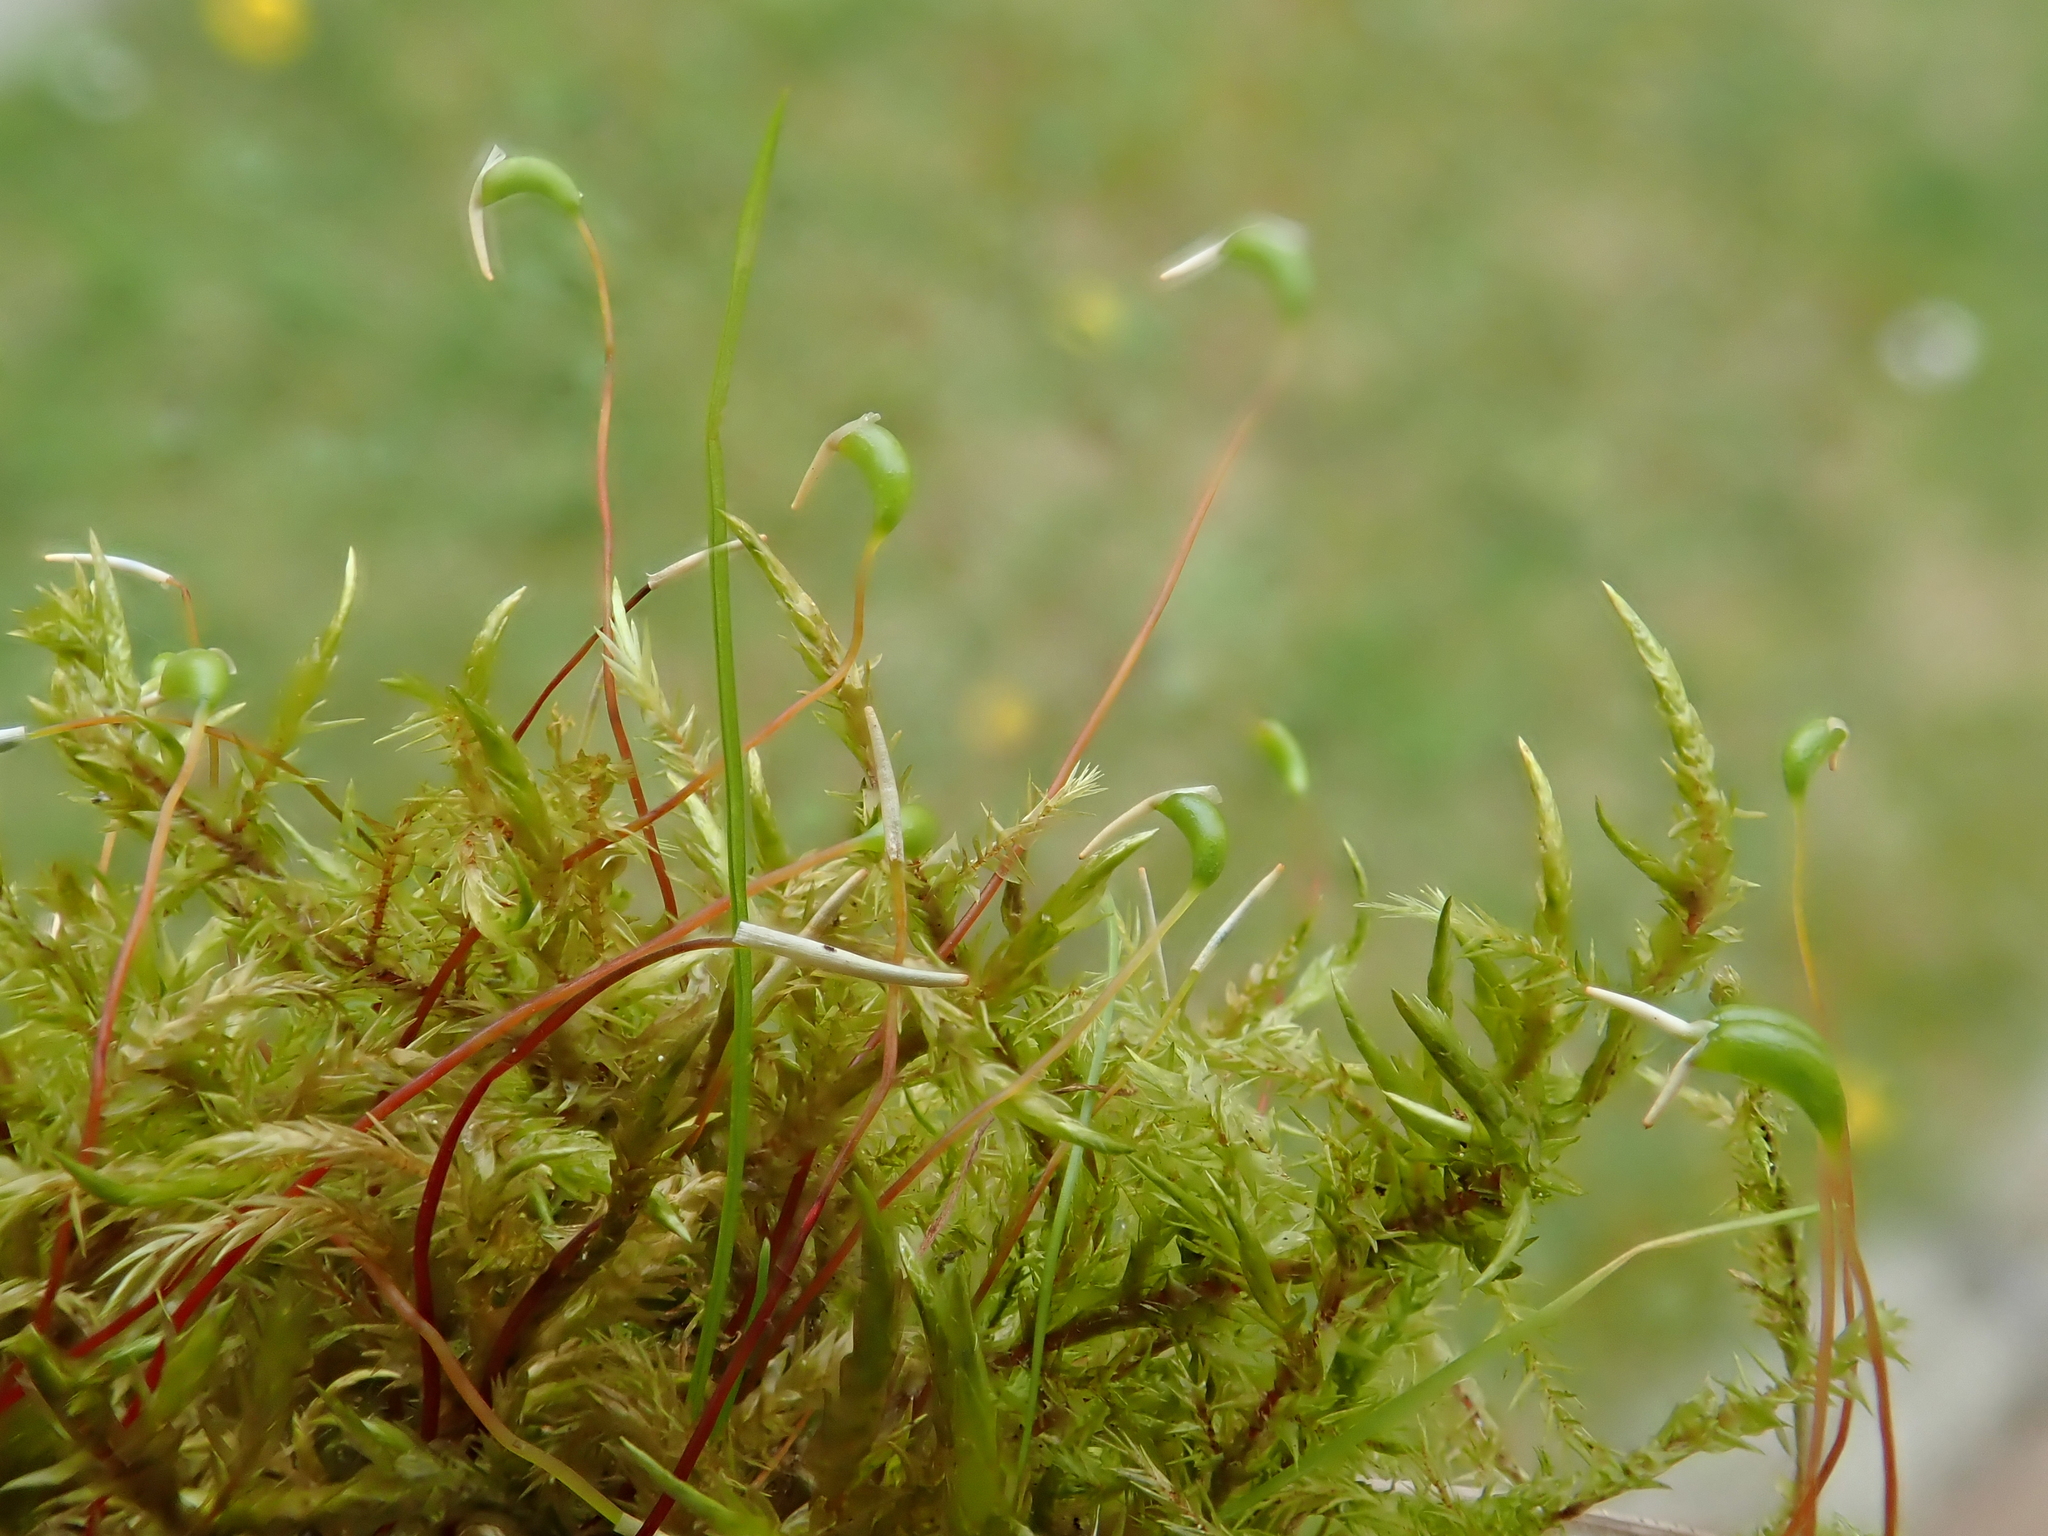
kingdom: Plantae
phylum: Bryophyta
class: Bryopsida
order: Hypnales
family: Pylaisiaceae
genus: Calliergonella
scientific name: Calliergonella cuspidata
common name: Common large wetland moss
